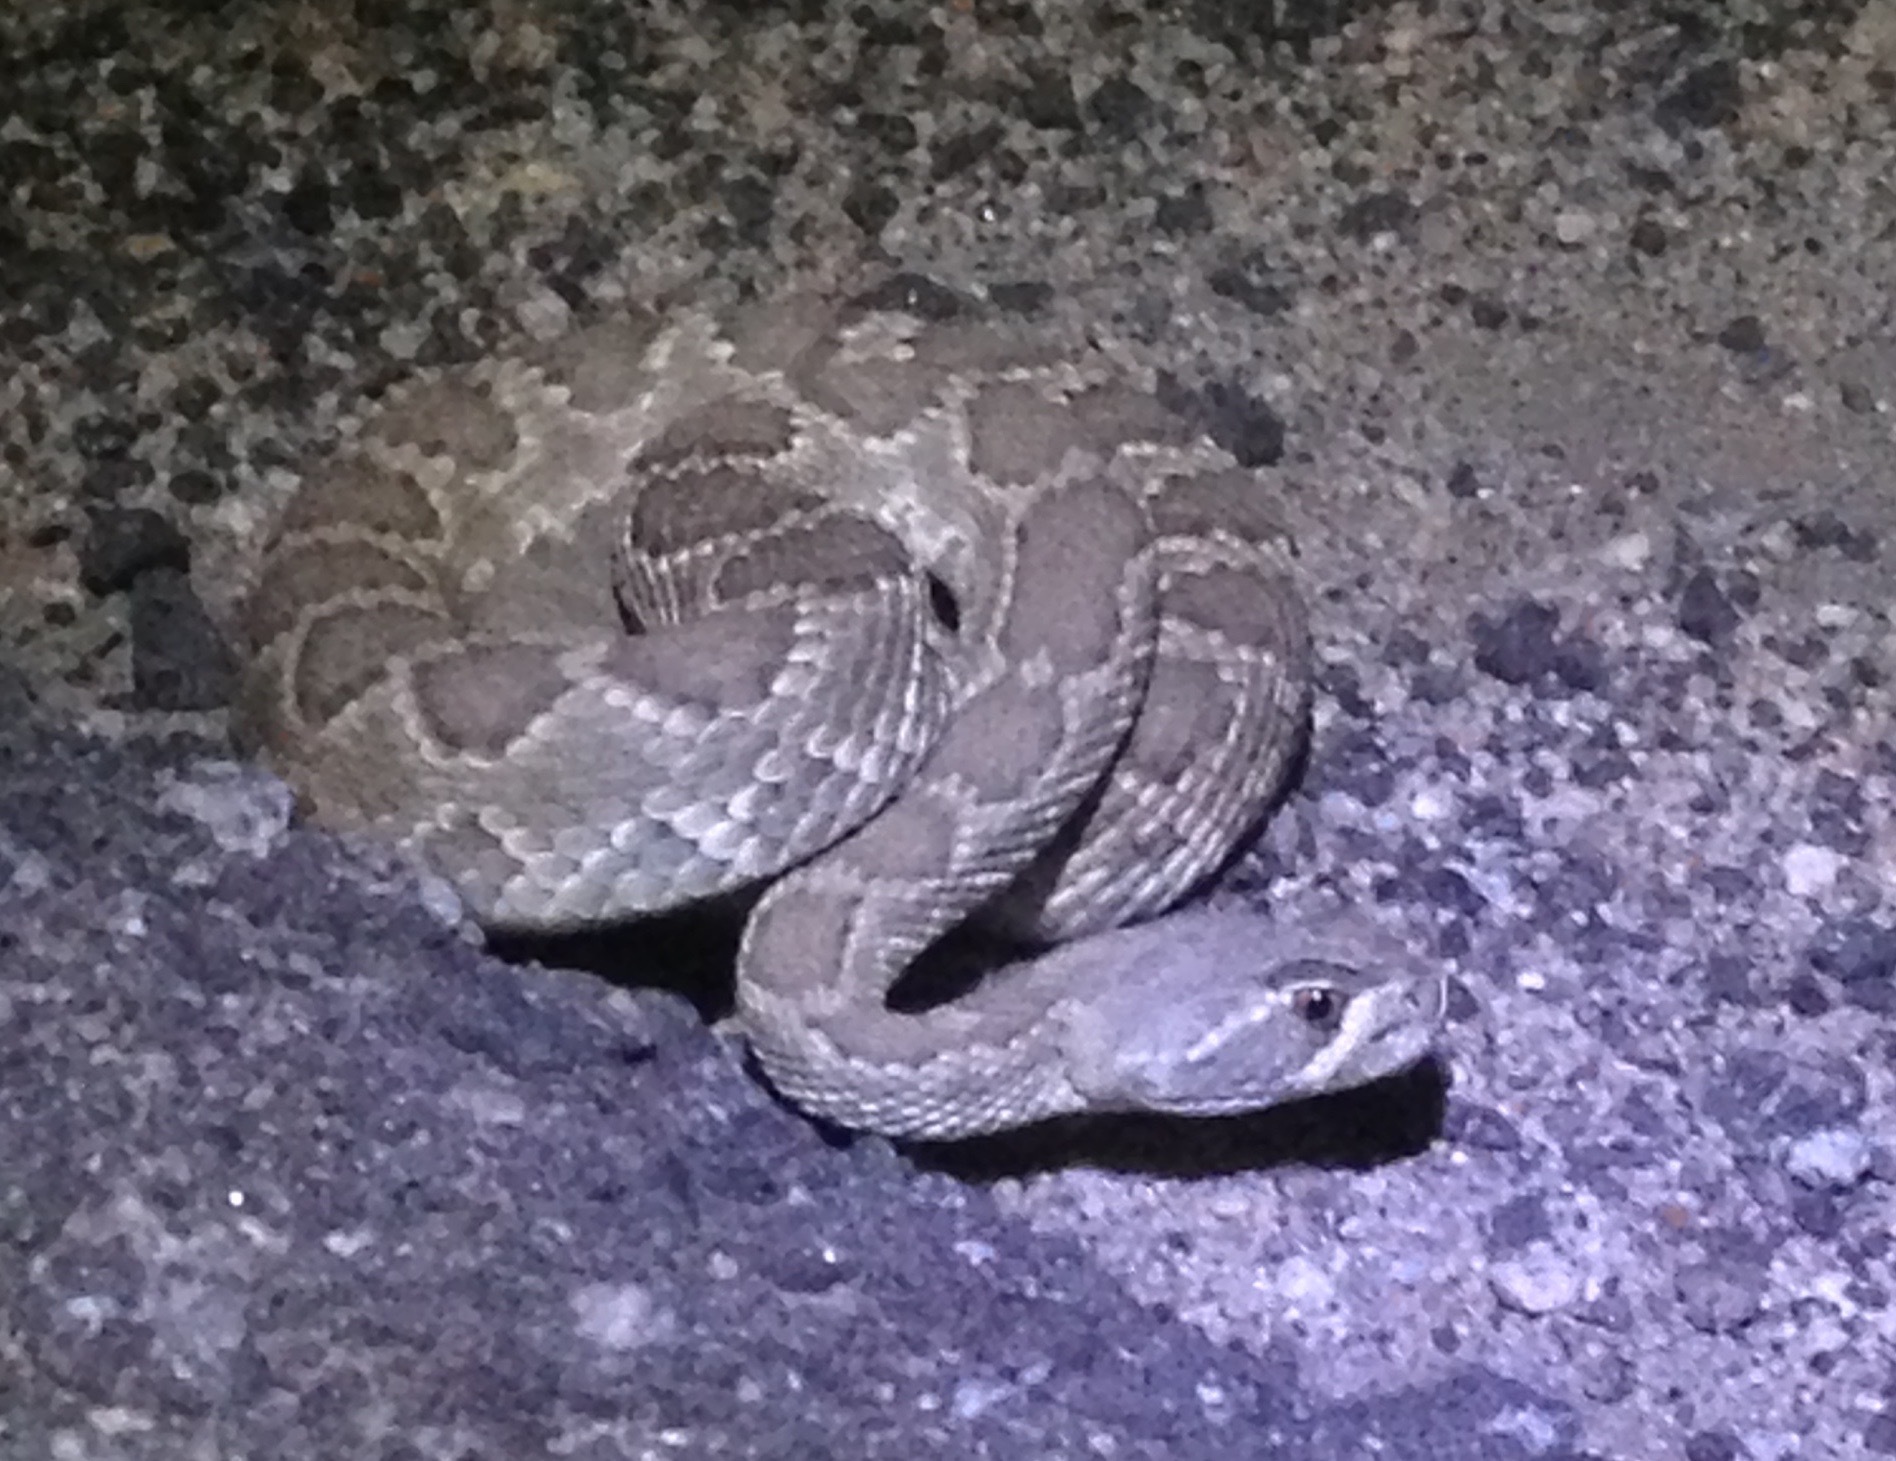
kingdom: Animalia
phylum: Chordata
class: Squamata
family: Viperidae
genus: Crotalus
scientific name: Crotalus scutulatus
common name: Scutulatus
